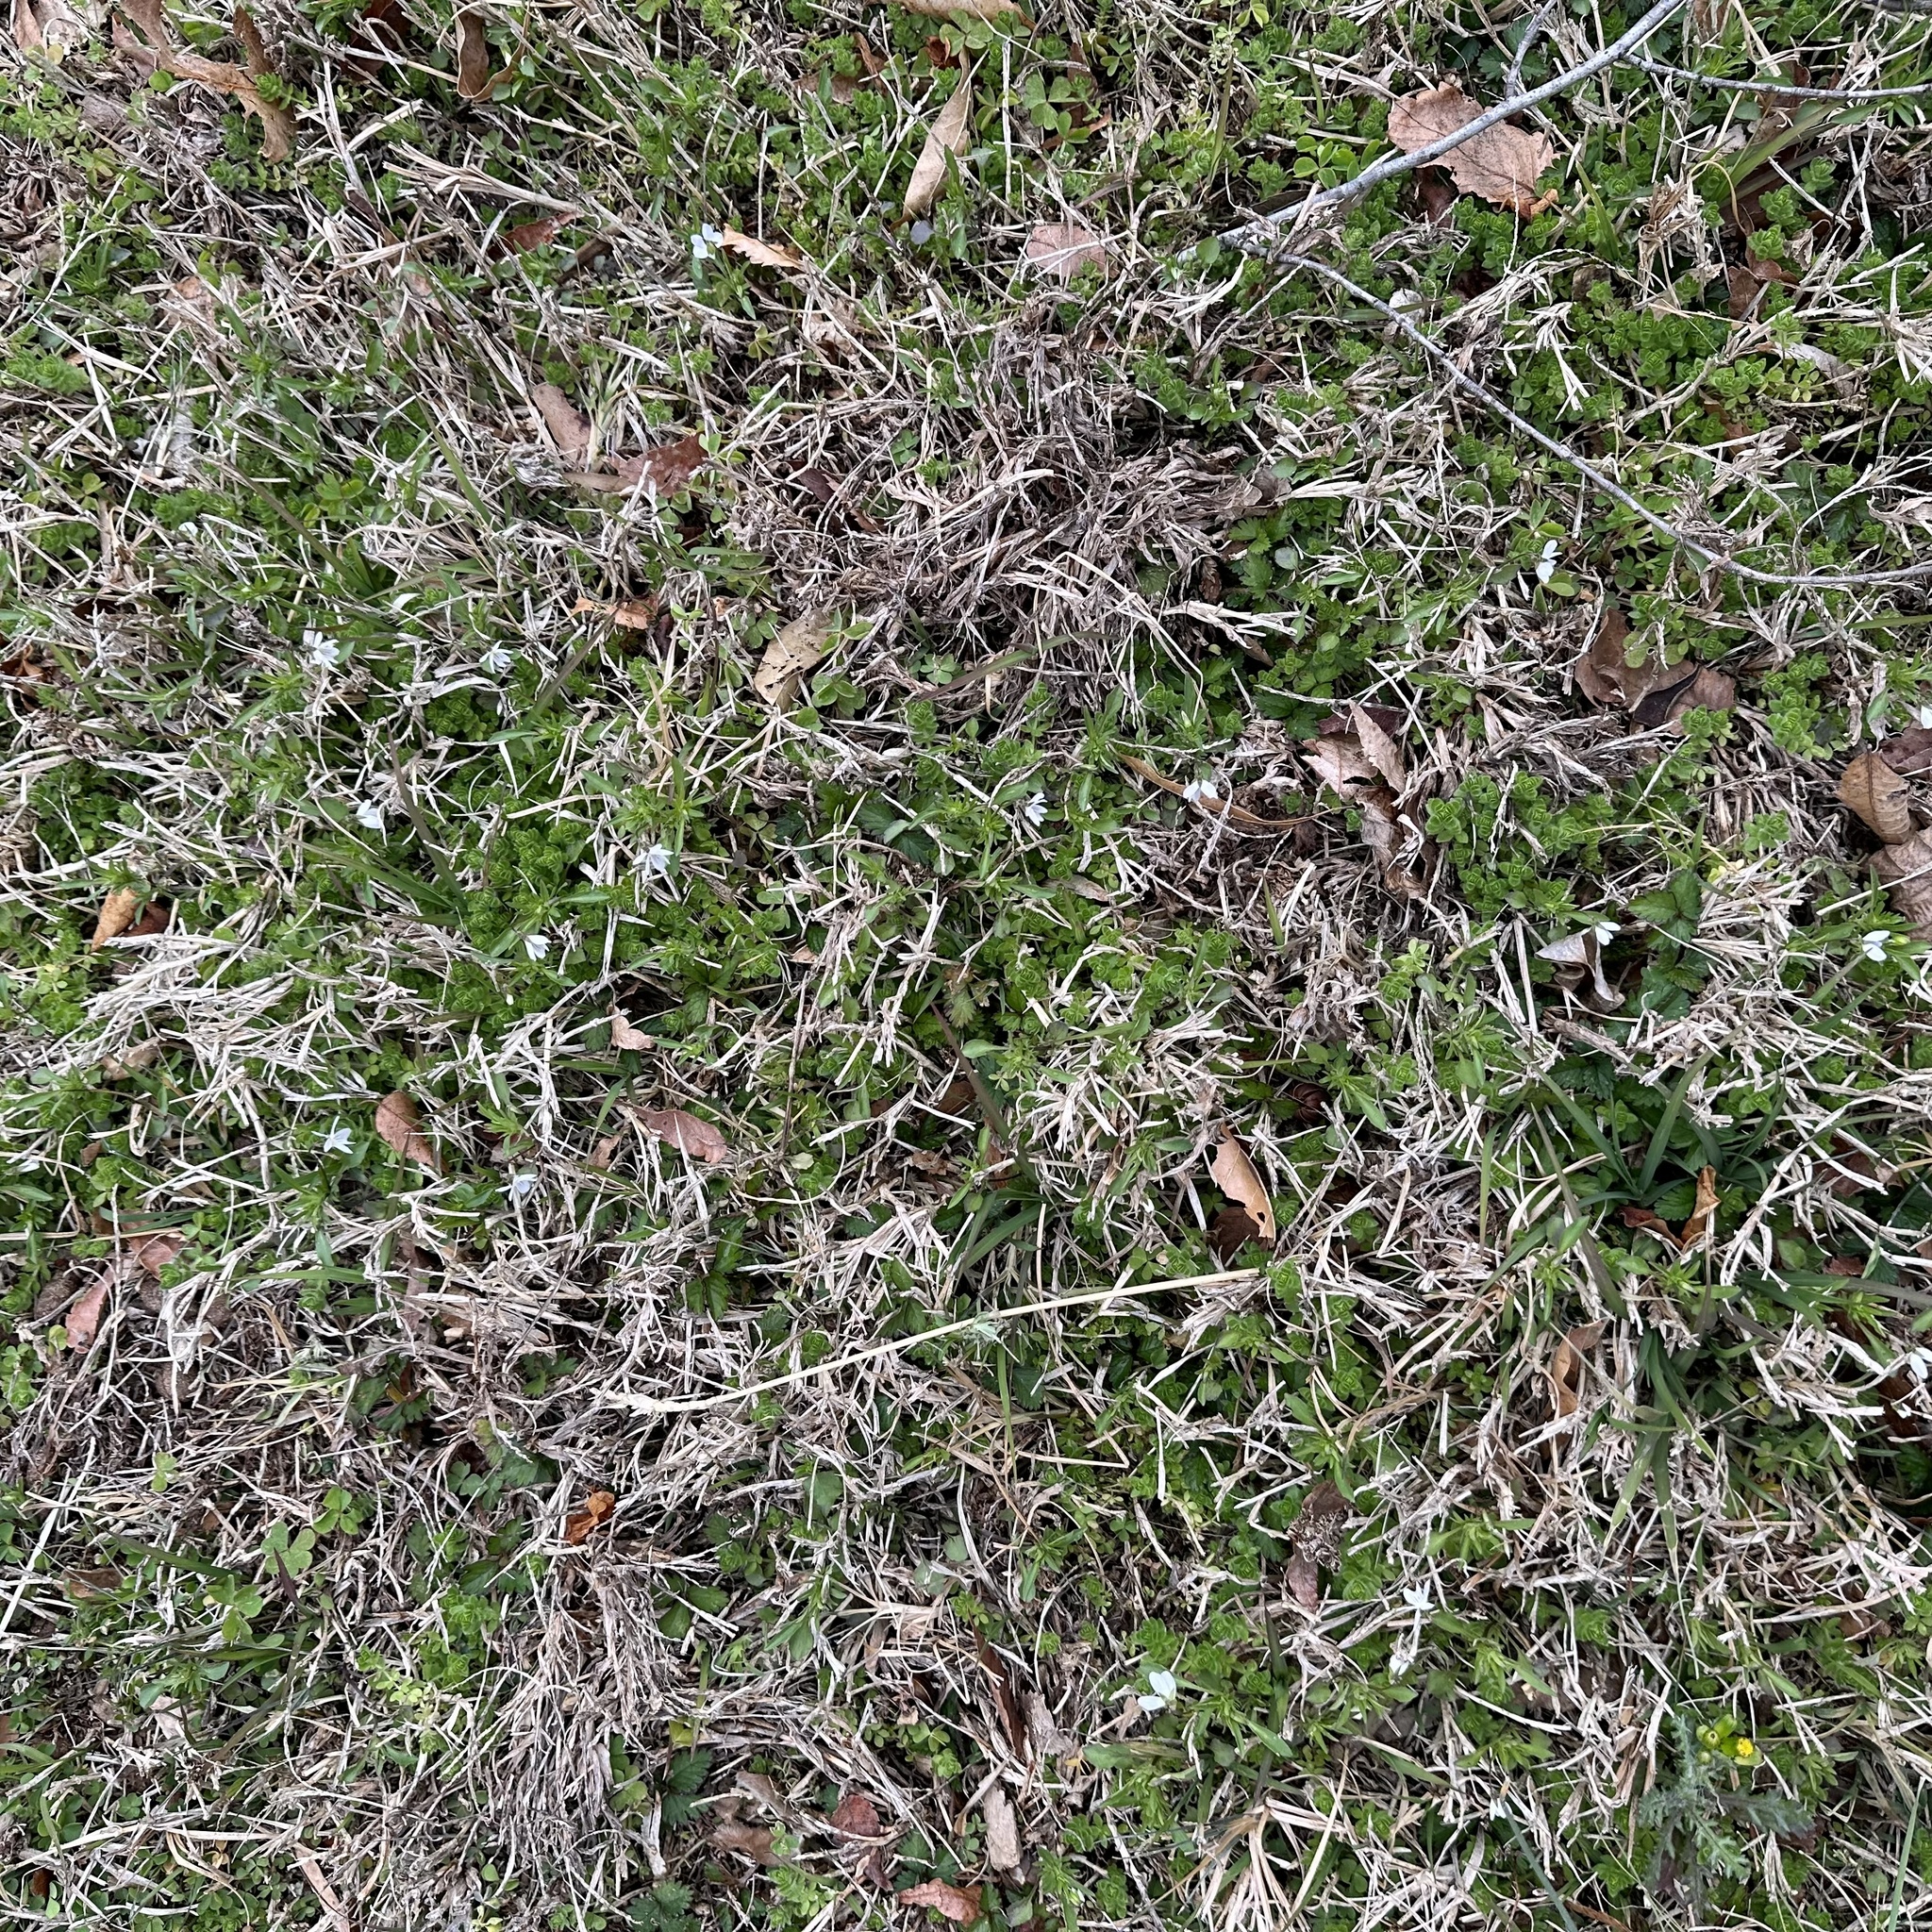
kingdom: Plantae
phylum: Tracheophyta
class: Magnoliopsida
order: Malpighiales
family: Violaceae
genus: Viola
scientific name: Viola rafinesquei
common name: American field pansy
